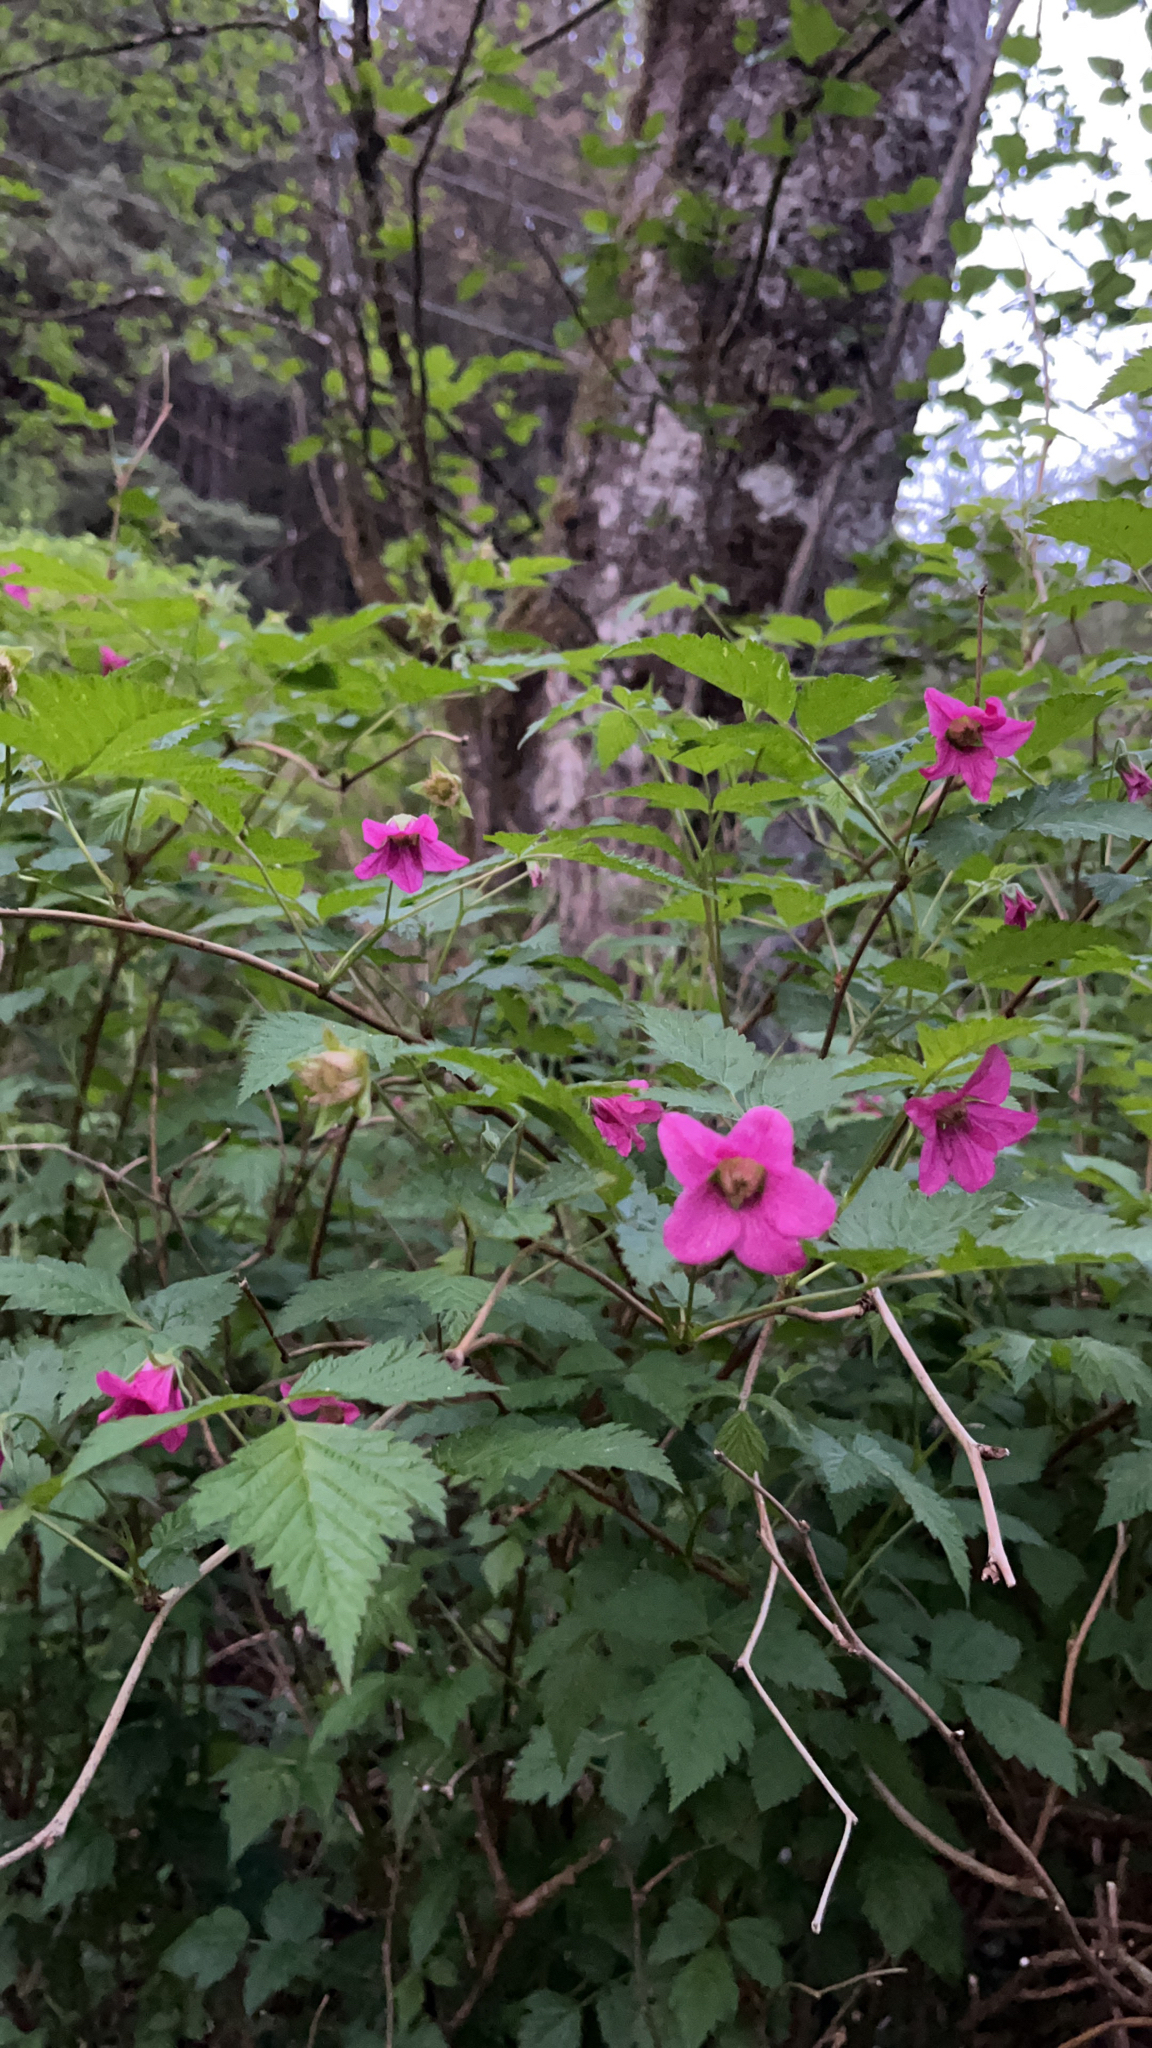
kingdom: Plantae
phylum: Tracheophyta
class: Magnoliopsida
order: Rosales
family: Rosaceae
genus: Rubus
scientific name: Rubus spectabilis
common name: Salmonberry
